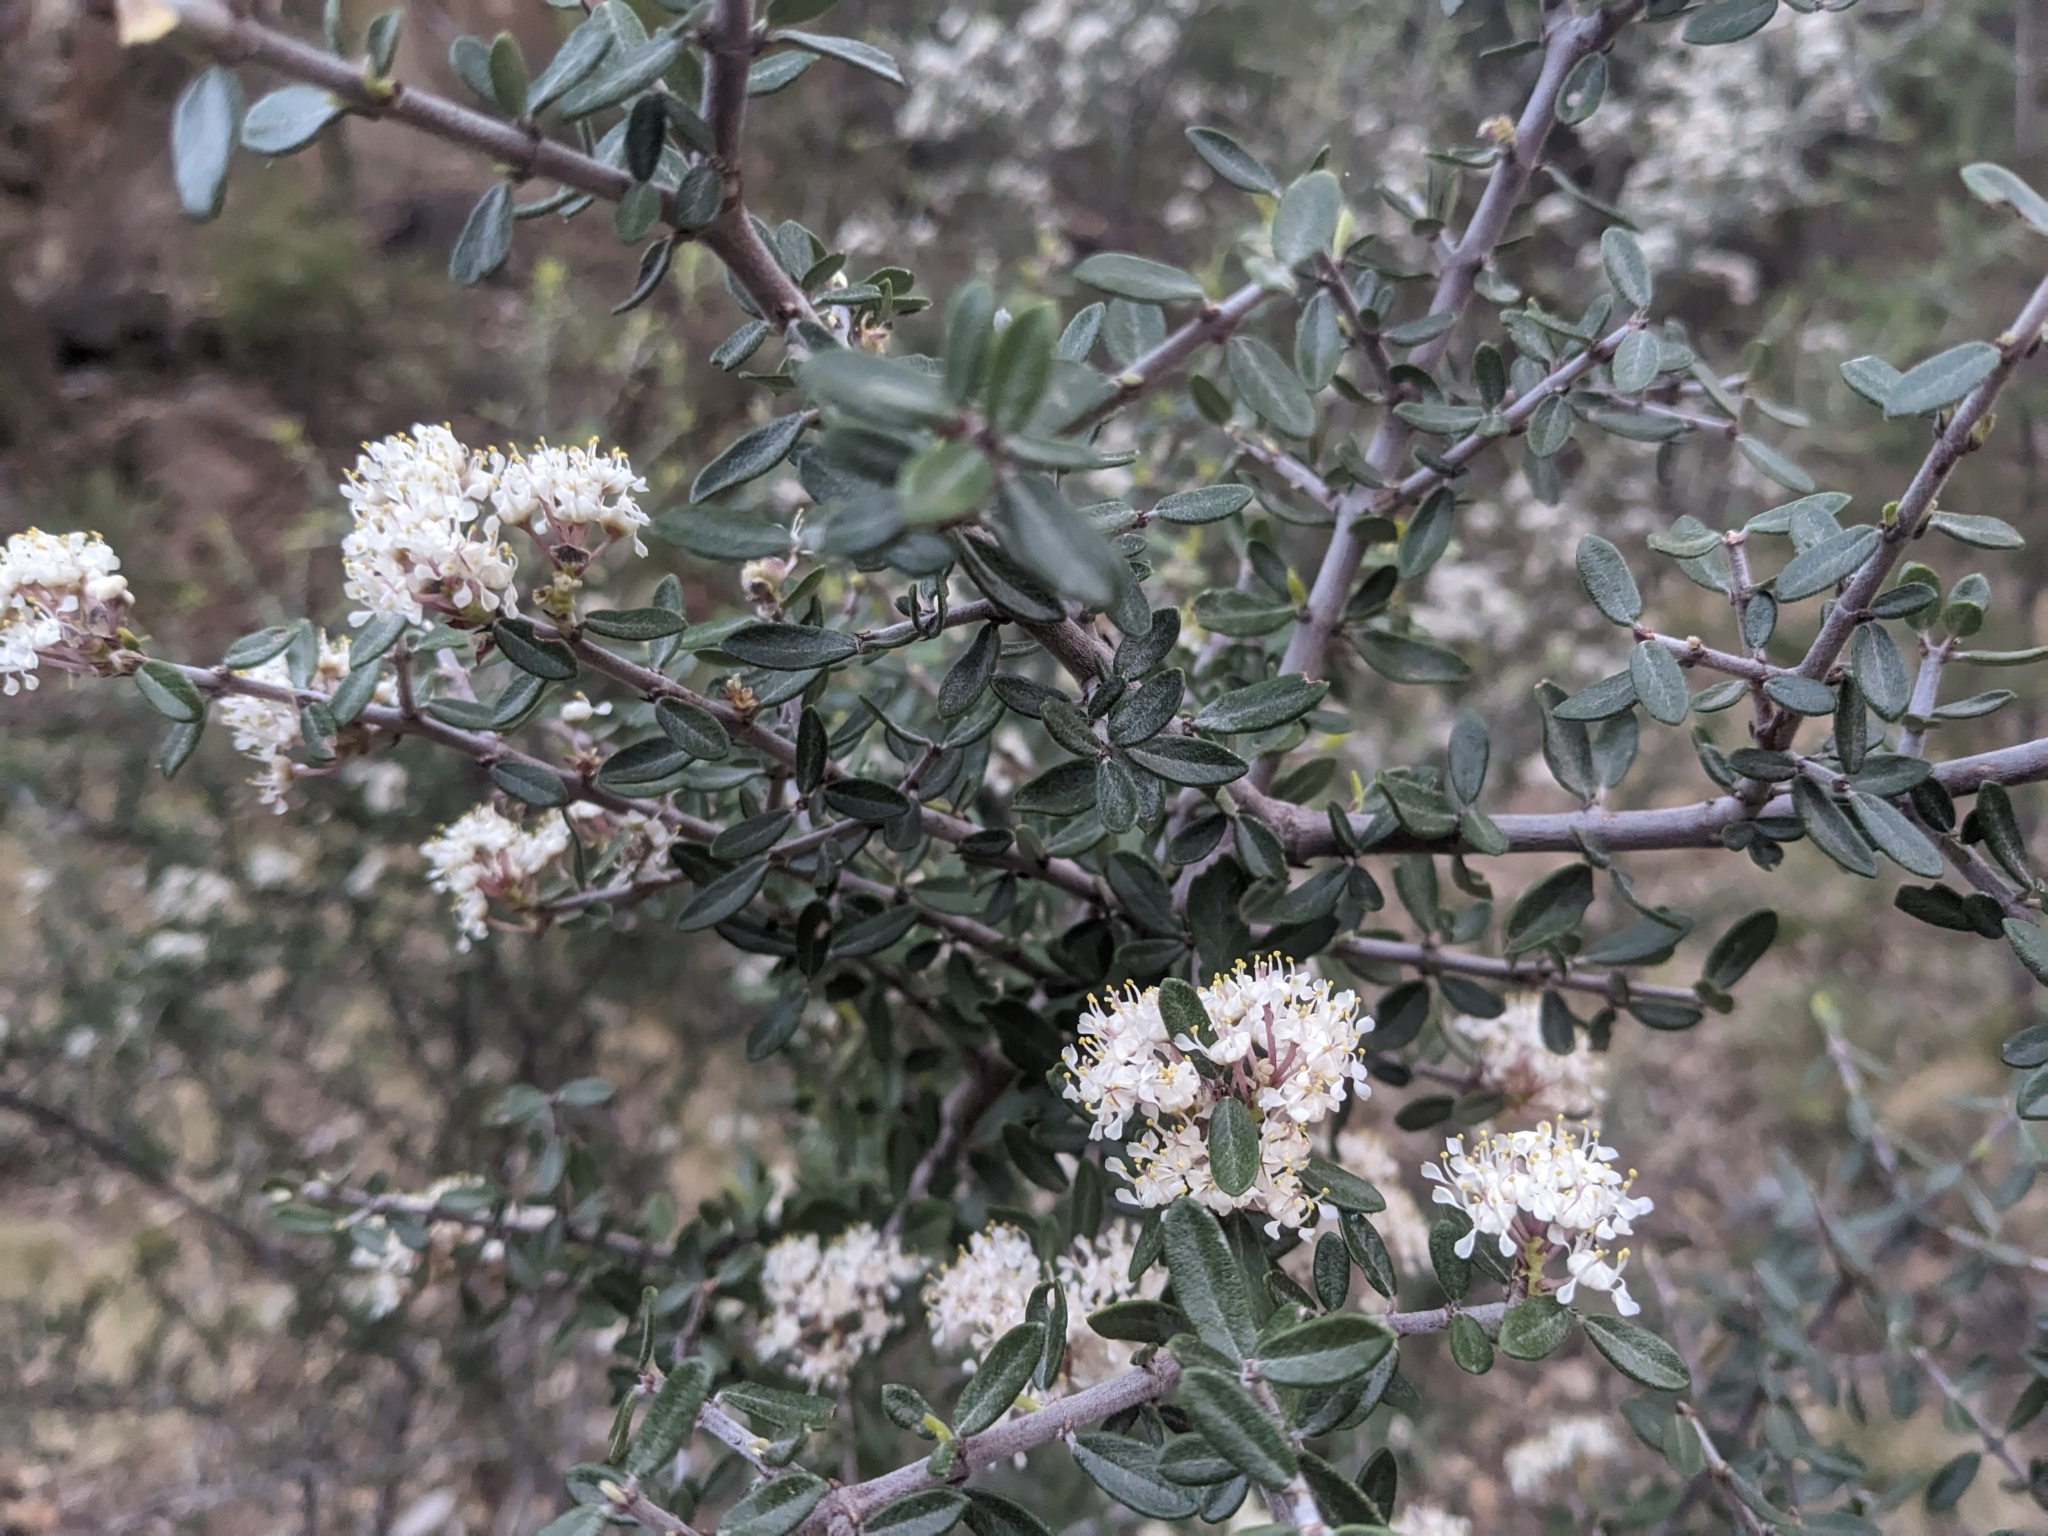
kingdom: Plantae
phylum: Tracheophyta
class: Magnoliopsida
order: Rosales
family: Rhamnaceae
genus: Ceanothus
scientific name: Ceanothus pauciflorus
